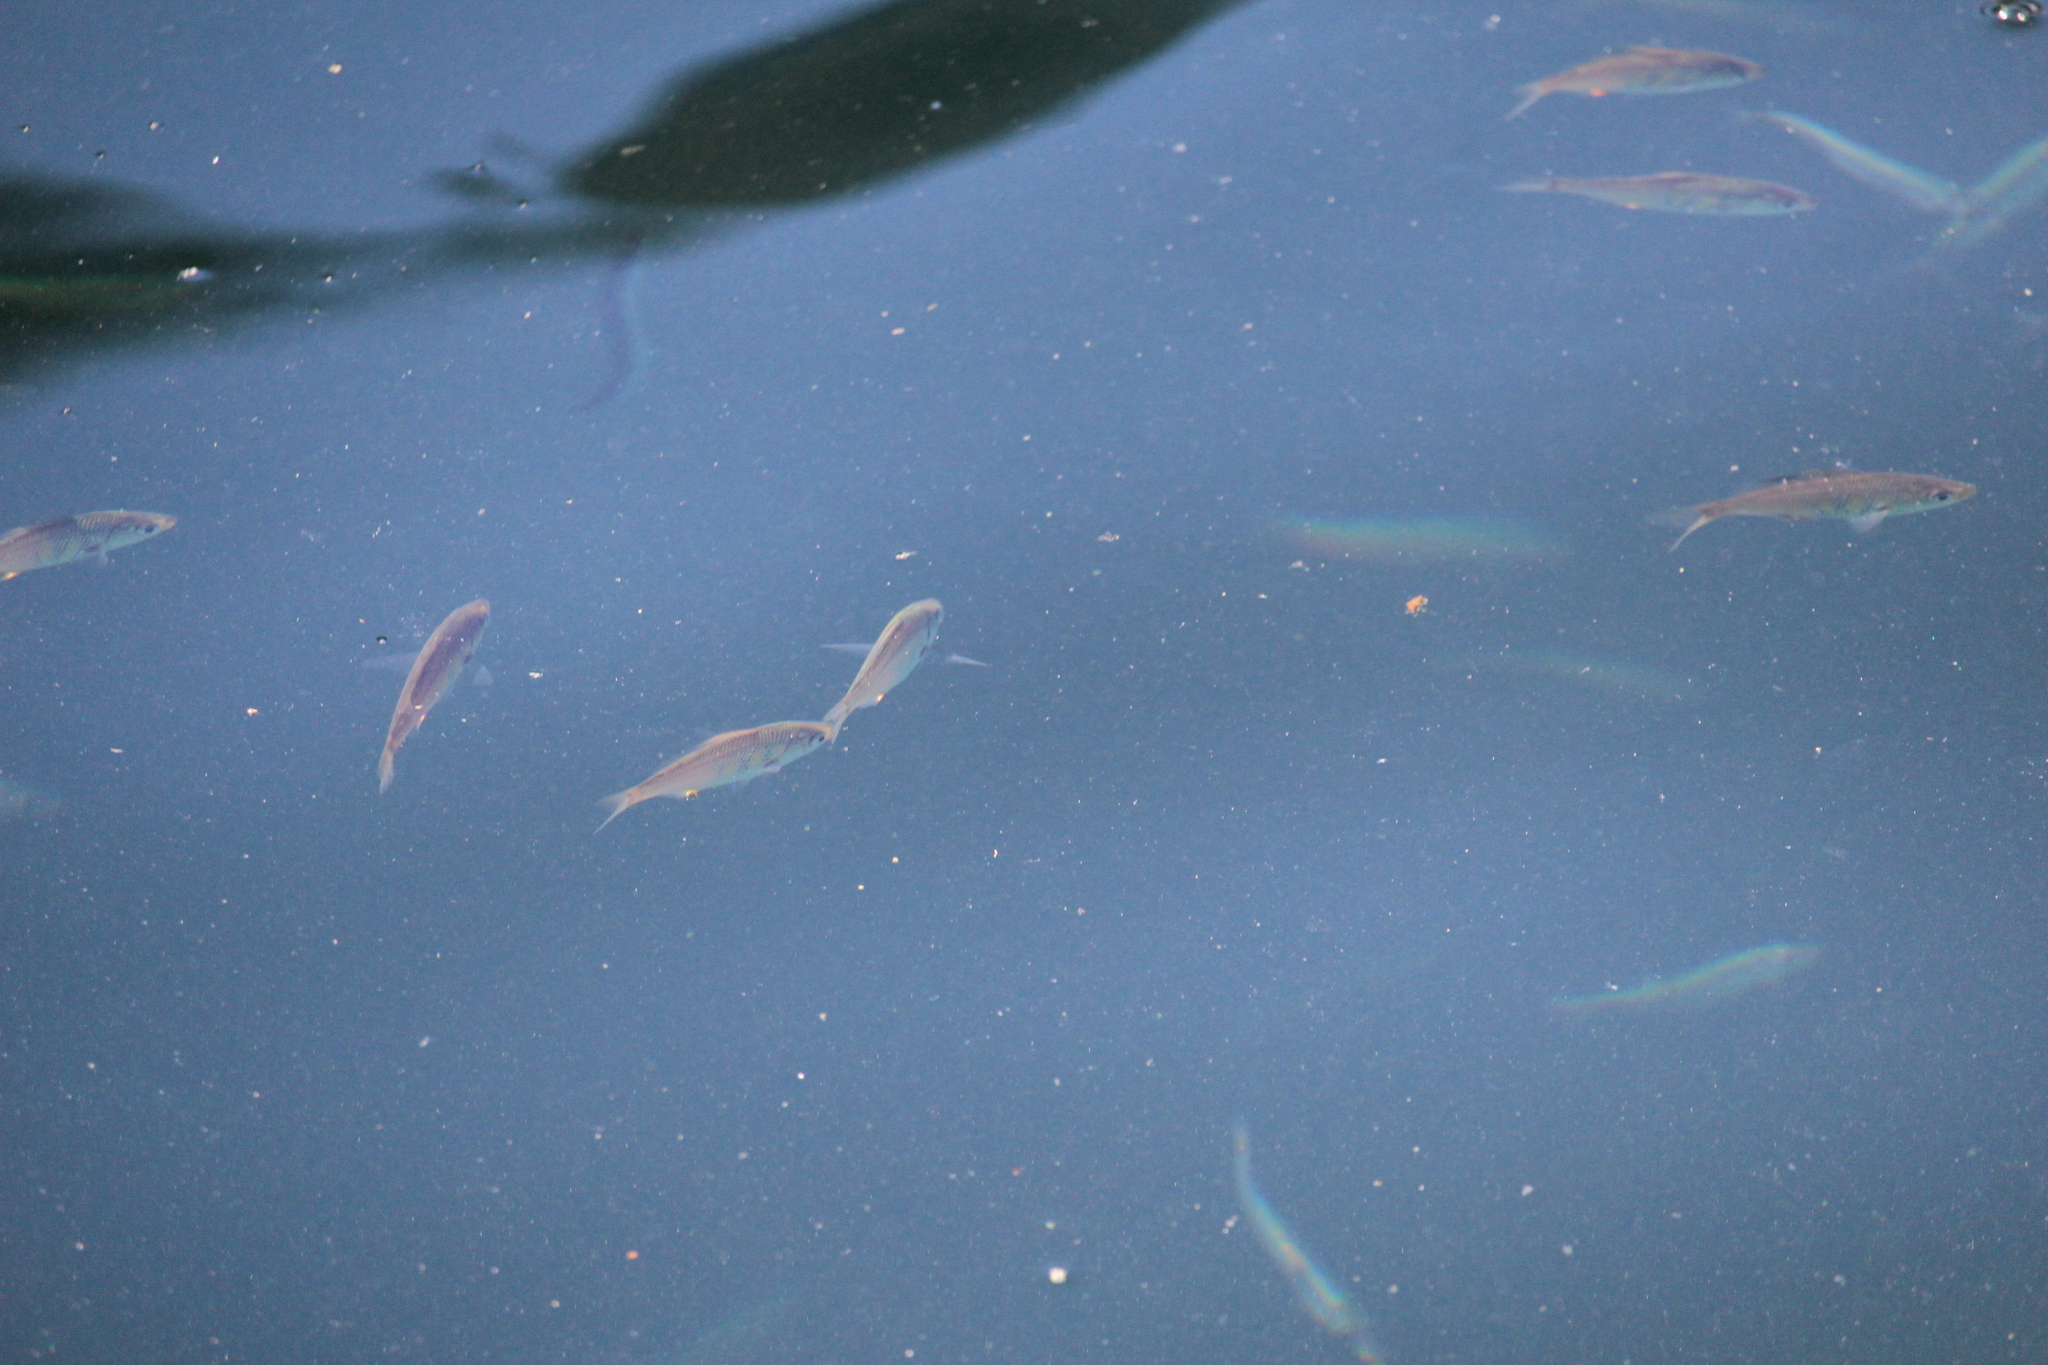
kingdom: Animalia
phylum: Chordata
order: Perciformes
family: Embiotocidae
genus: Cymatogaster
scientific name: Cymatogaster aggregata
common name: Shiner perch
